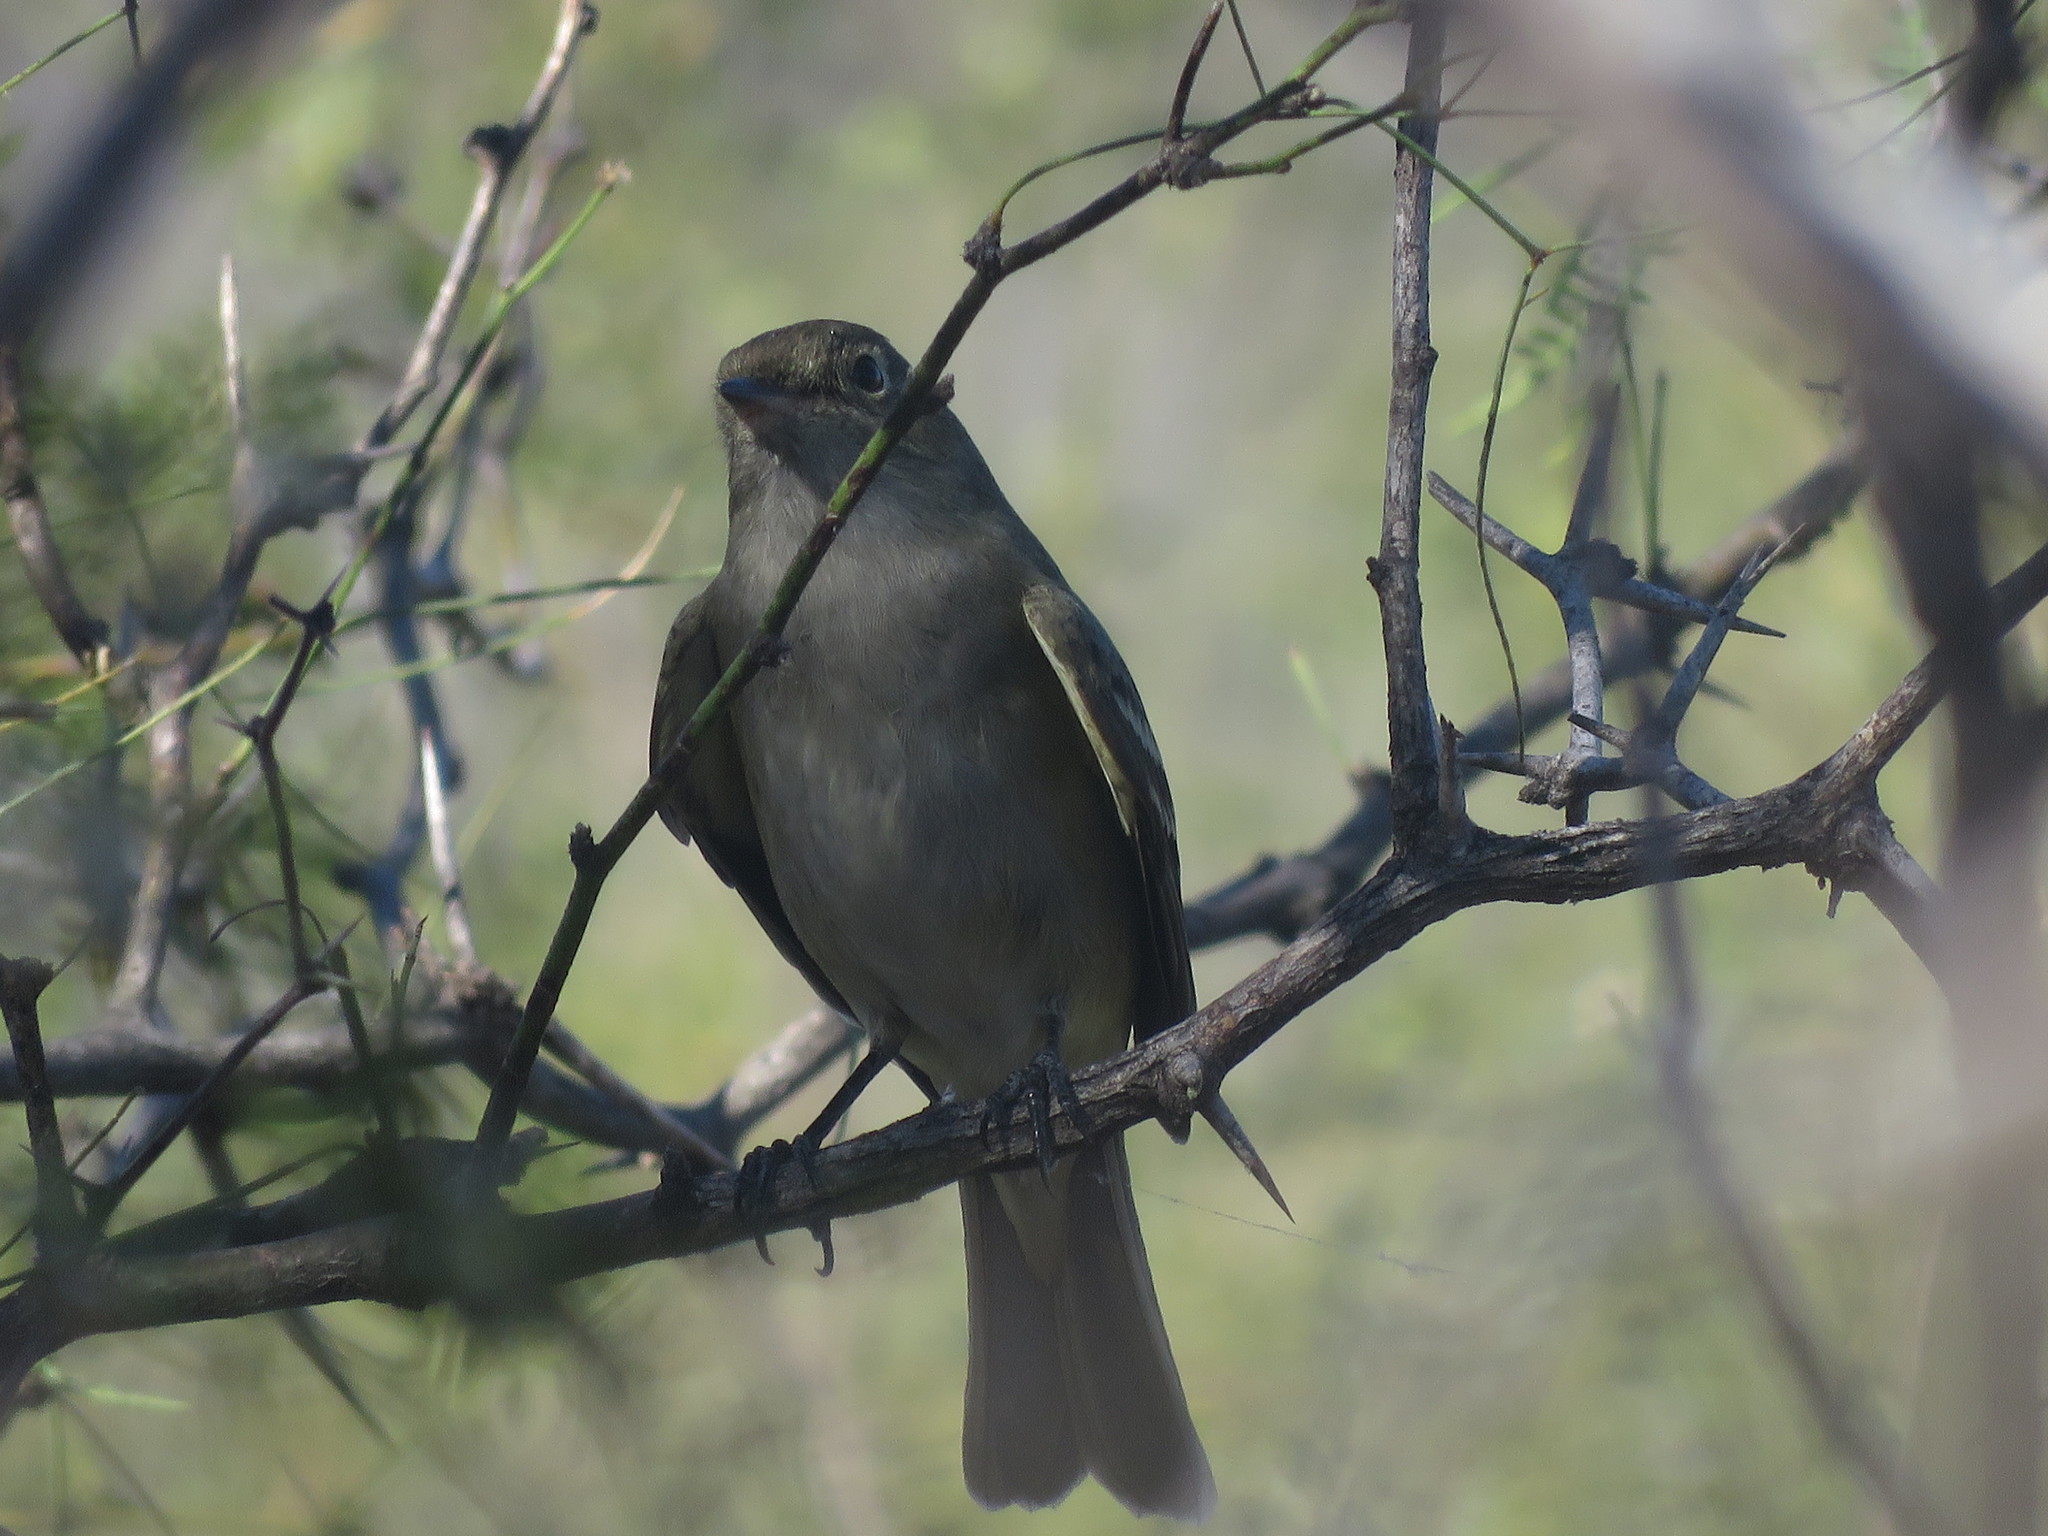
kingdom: Animalia
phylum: Chordata
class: Aves
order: Passeriformes
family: Tyrannidae
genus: Elaenia
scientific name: Elaenia parvirostris
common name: Small-billed elaenia
